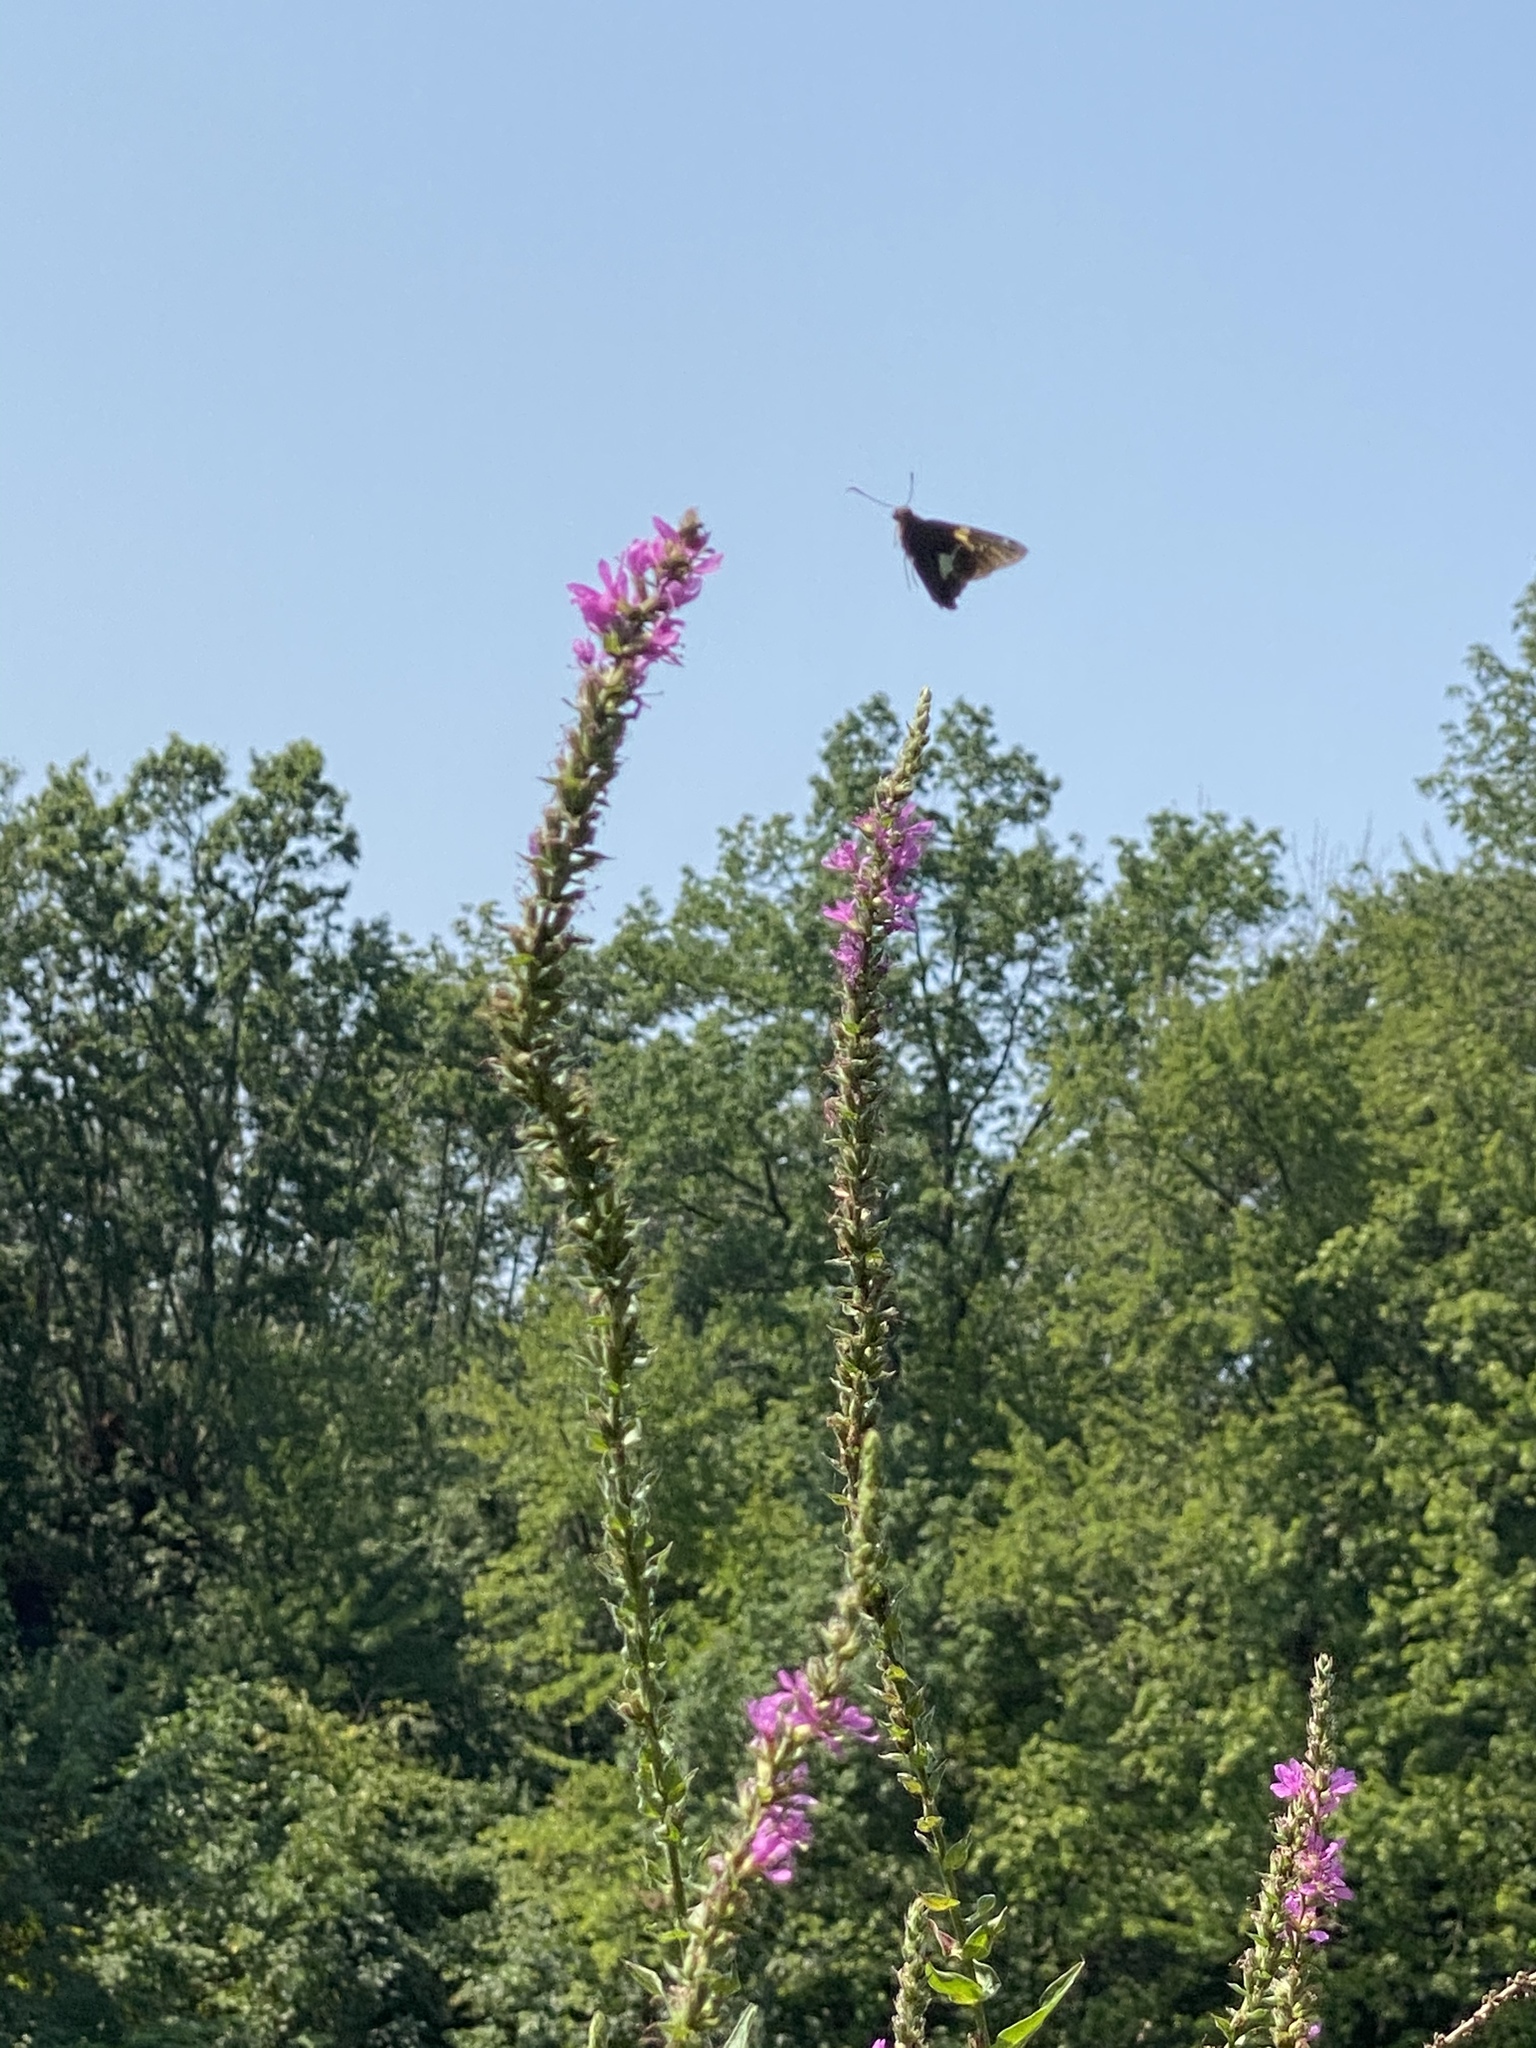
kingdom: Animalia
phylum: Arthropoda
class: Insecta
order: Lepidoptera
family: Hesperiidae
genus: Epargyreus
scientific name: Epargyreus clarus
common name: Silver-spotted skipper
